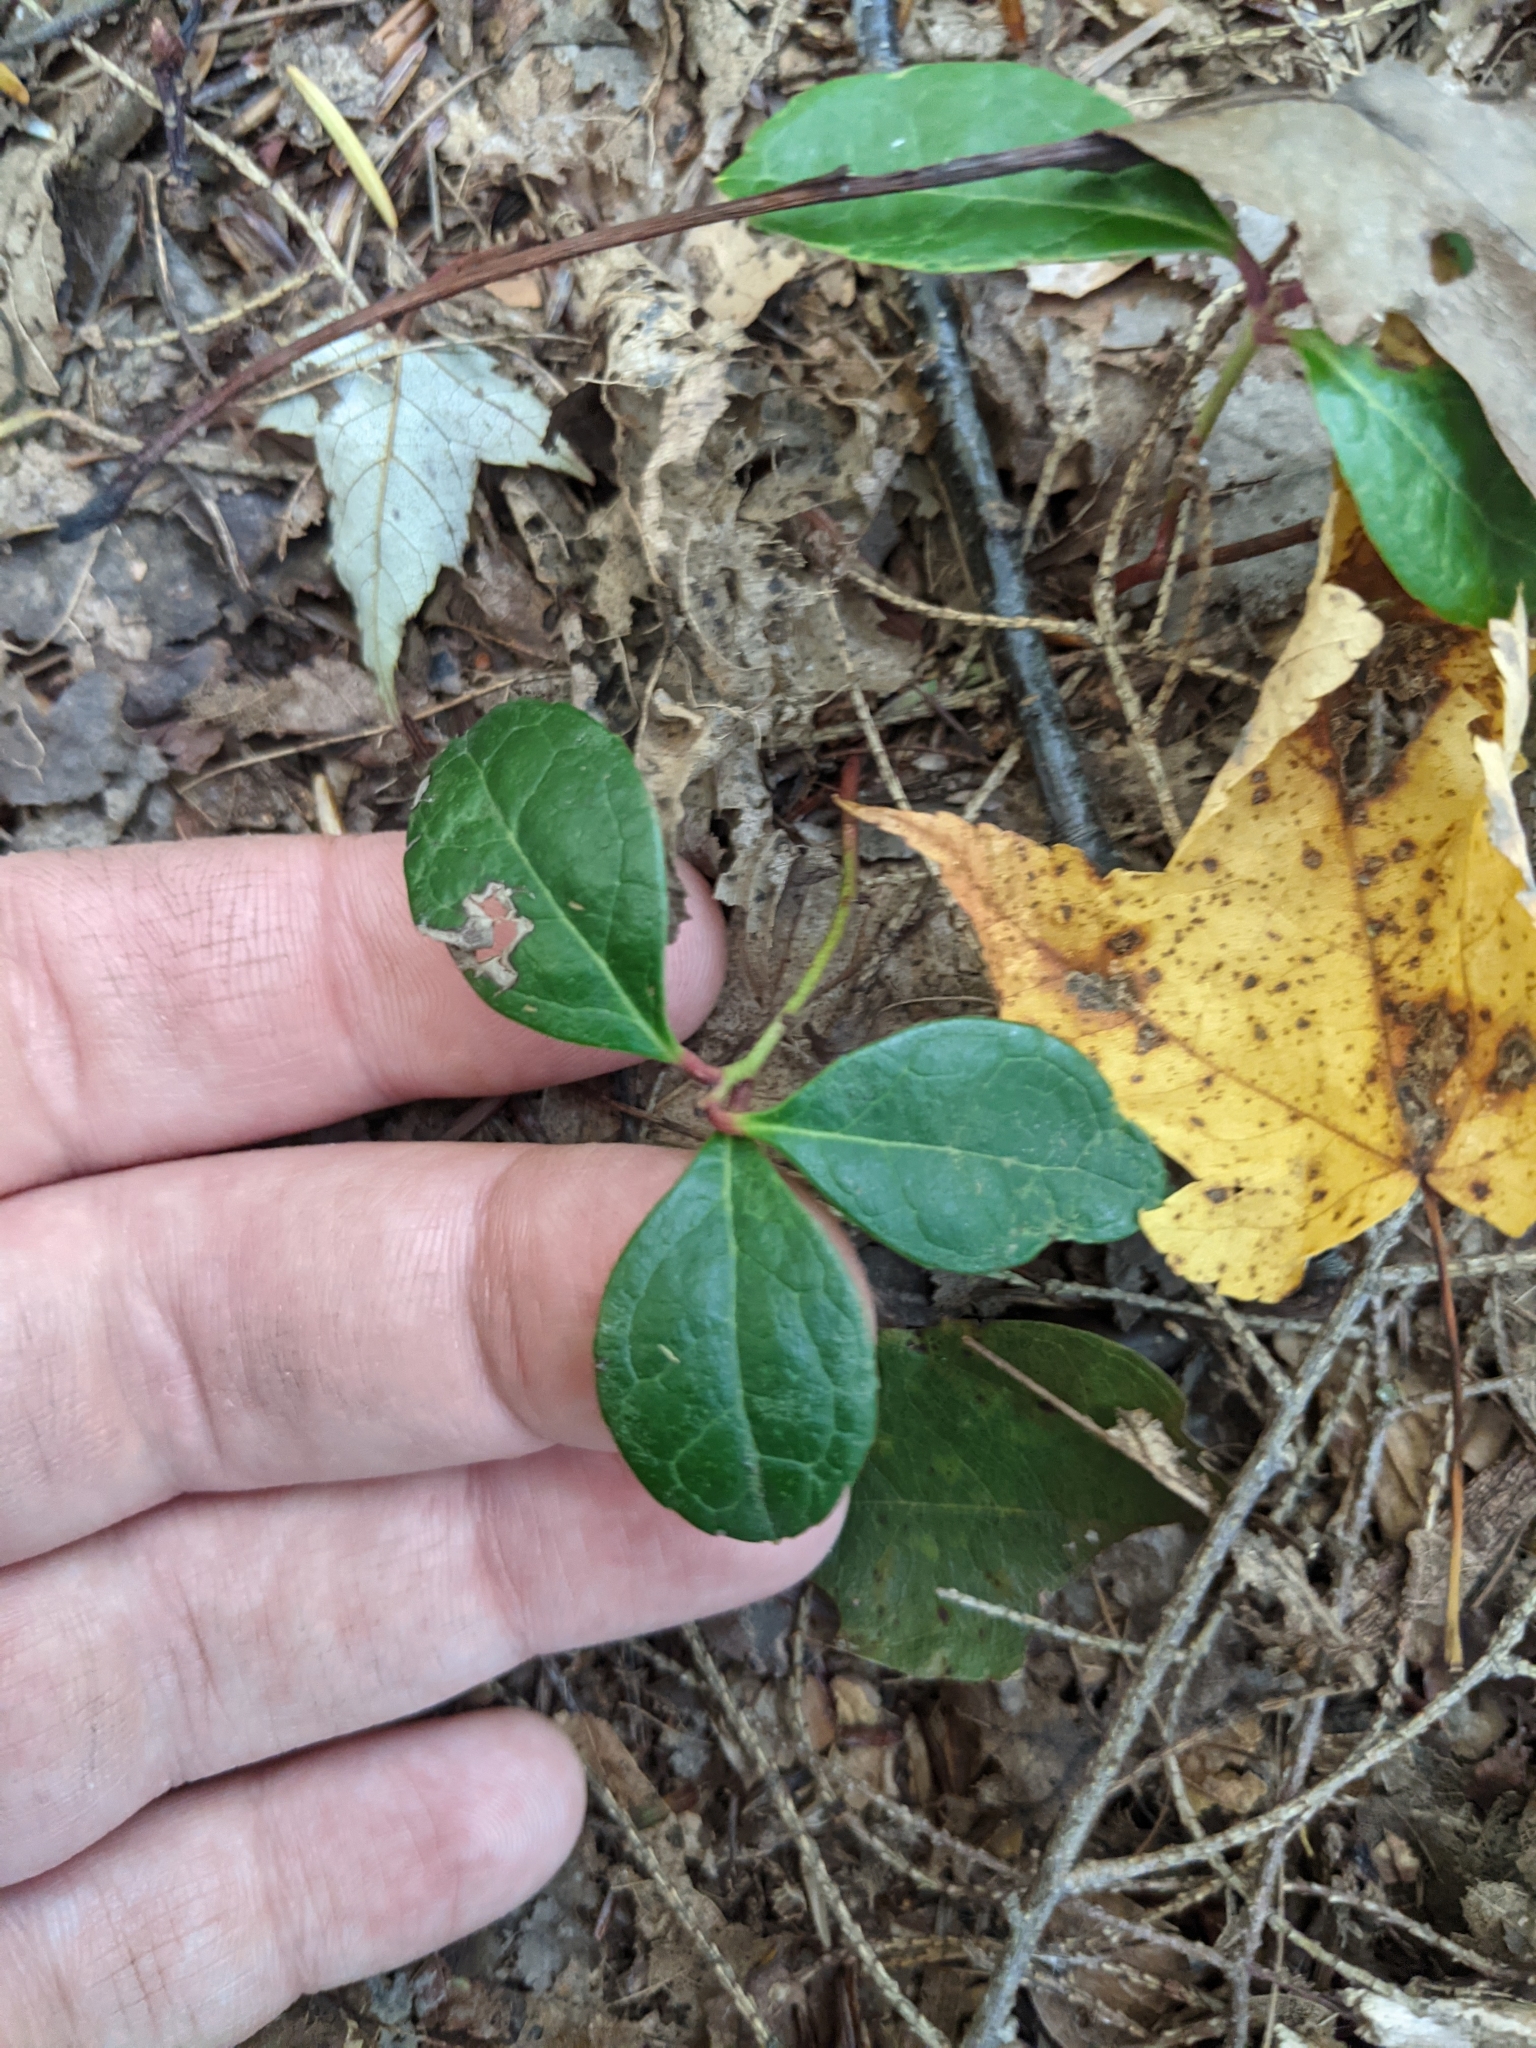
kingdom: Plantae
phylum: Tracheophyta
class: Magnoliopsida
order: Ericales
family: Ericaceae
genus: Gaultheria
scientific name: Gaultheria procumbens
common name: Checkerberry
